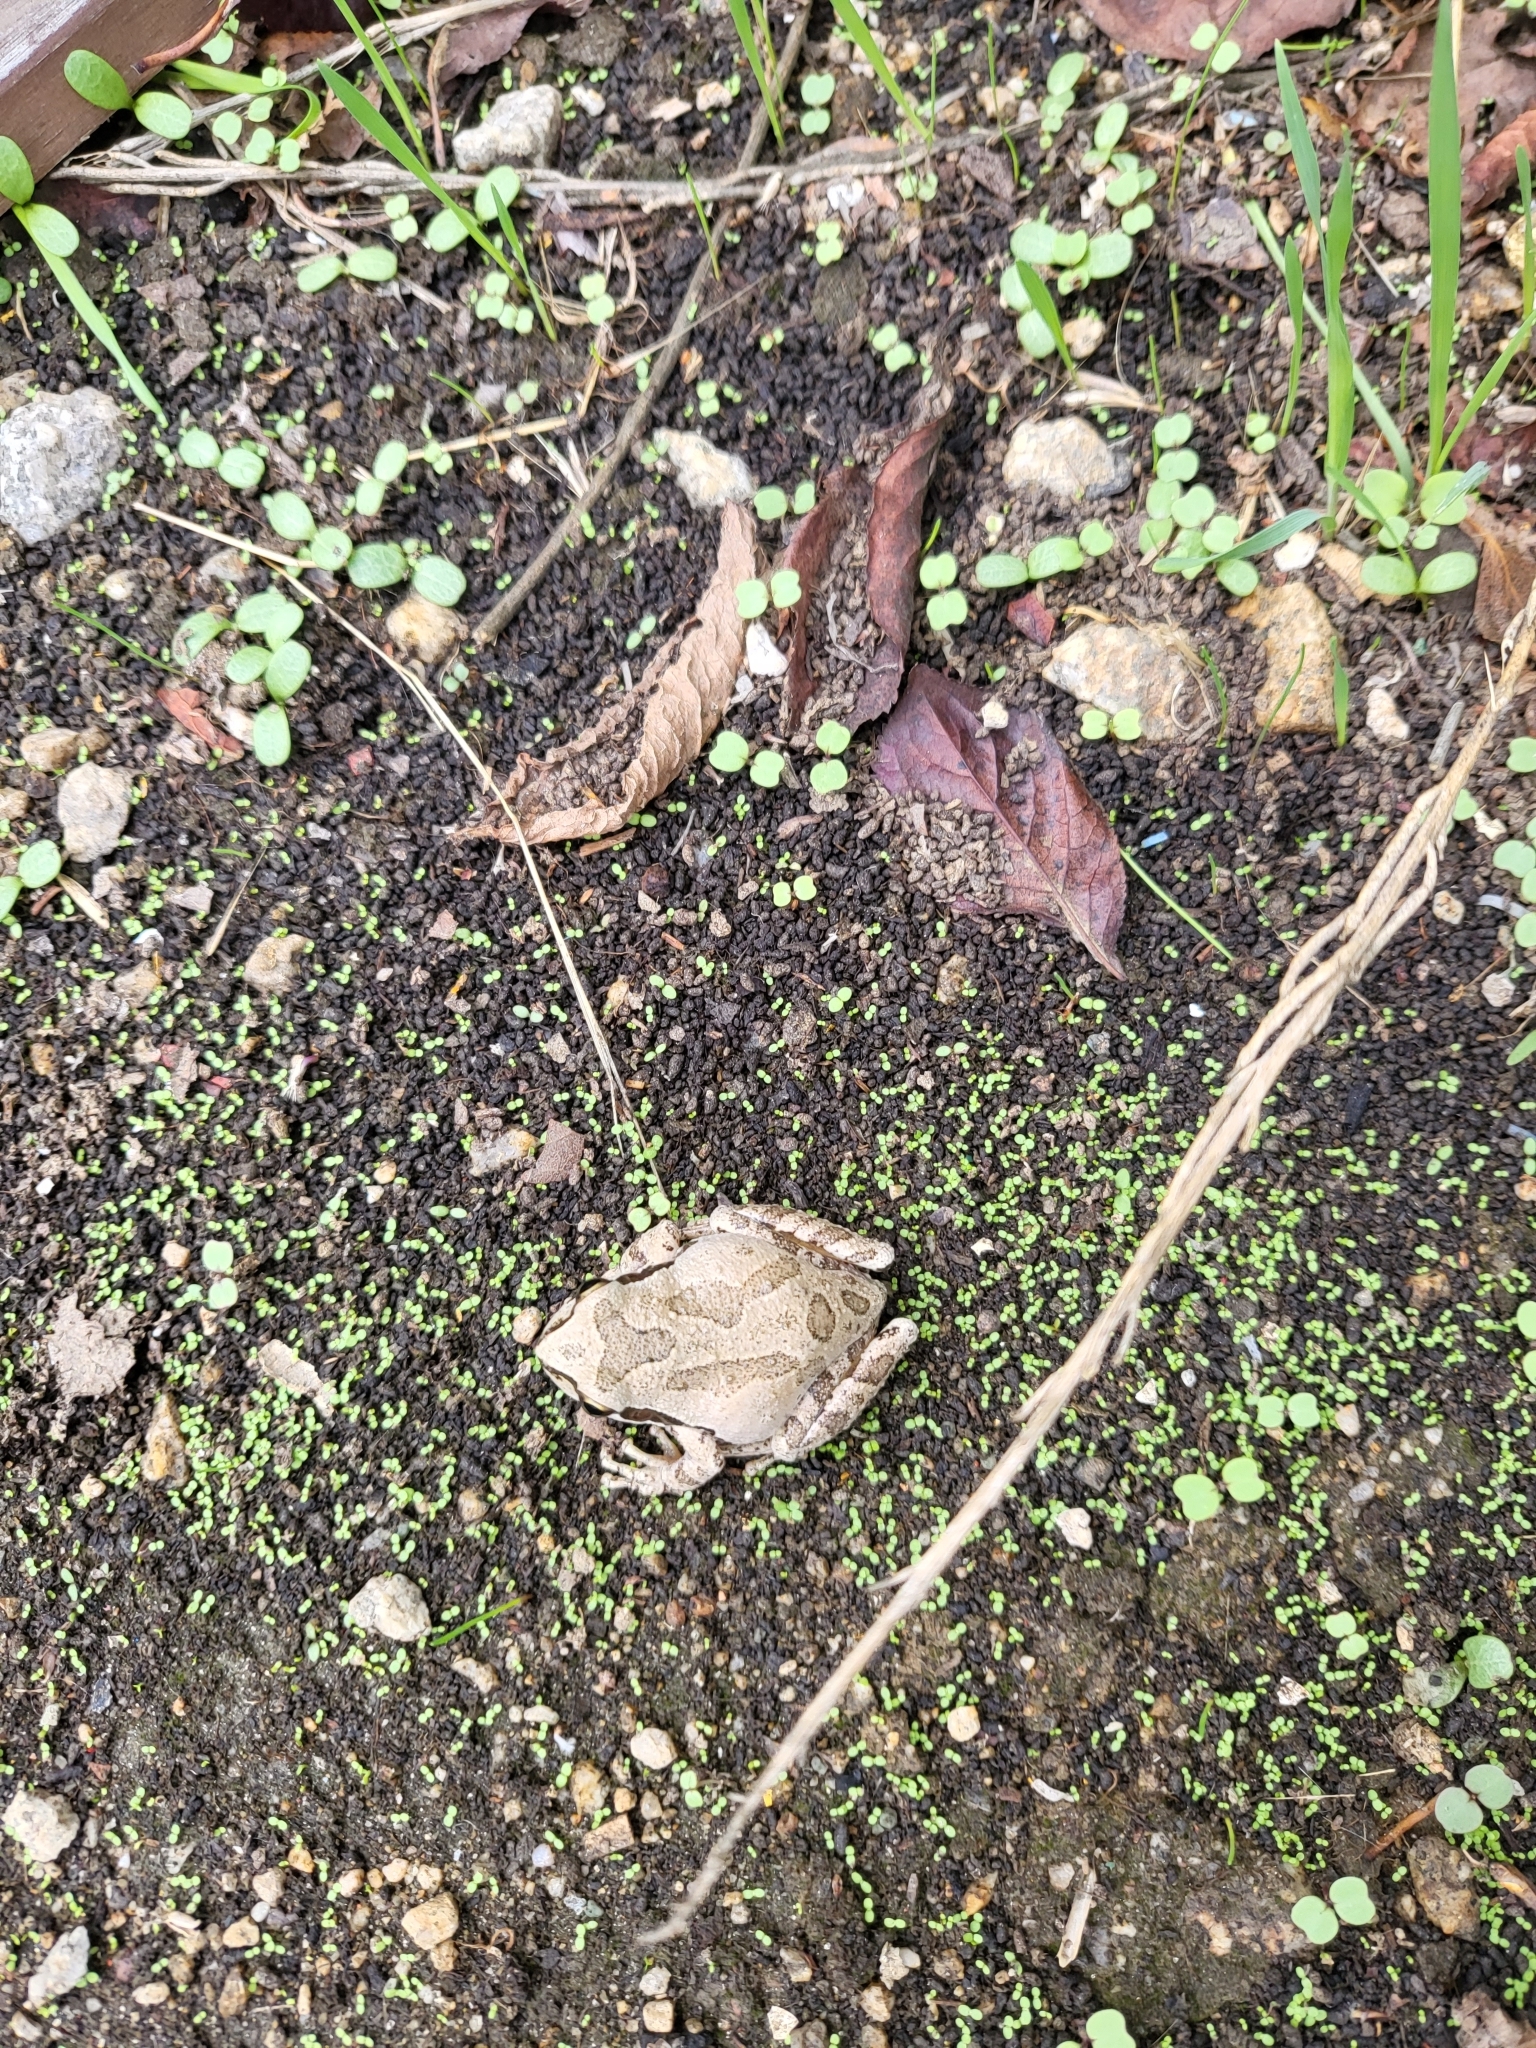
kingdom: Animalia
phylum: Chordata
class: Amphibia
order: Anura
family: Hylidae
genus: Pseudacris
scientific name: Pseudacris regilla
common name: Pacific chorus frog
